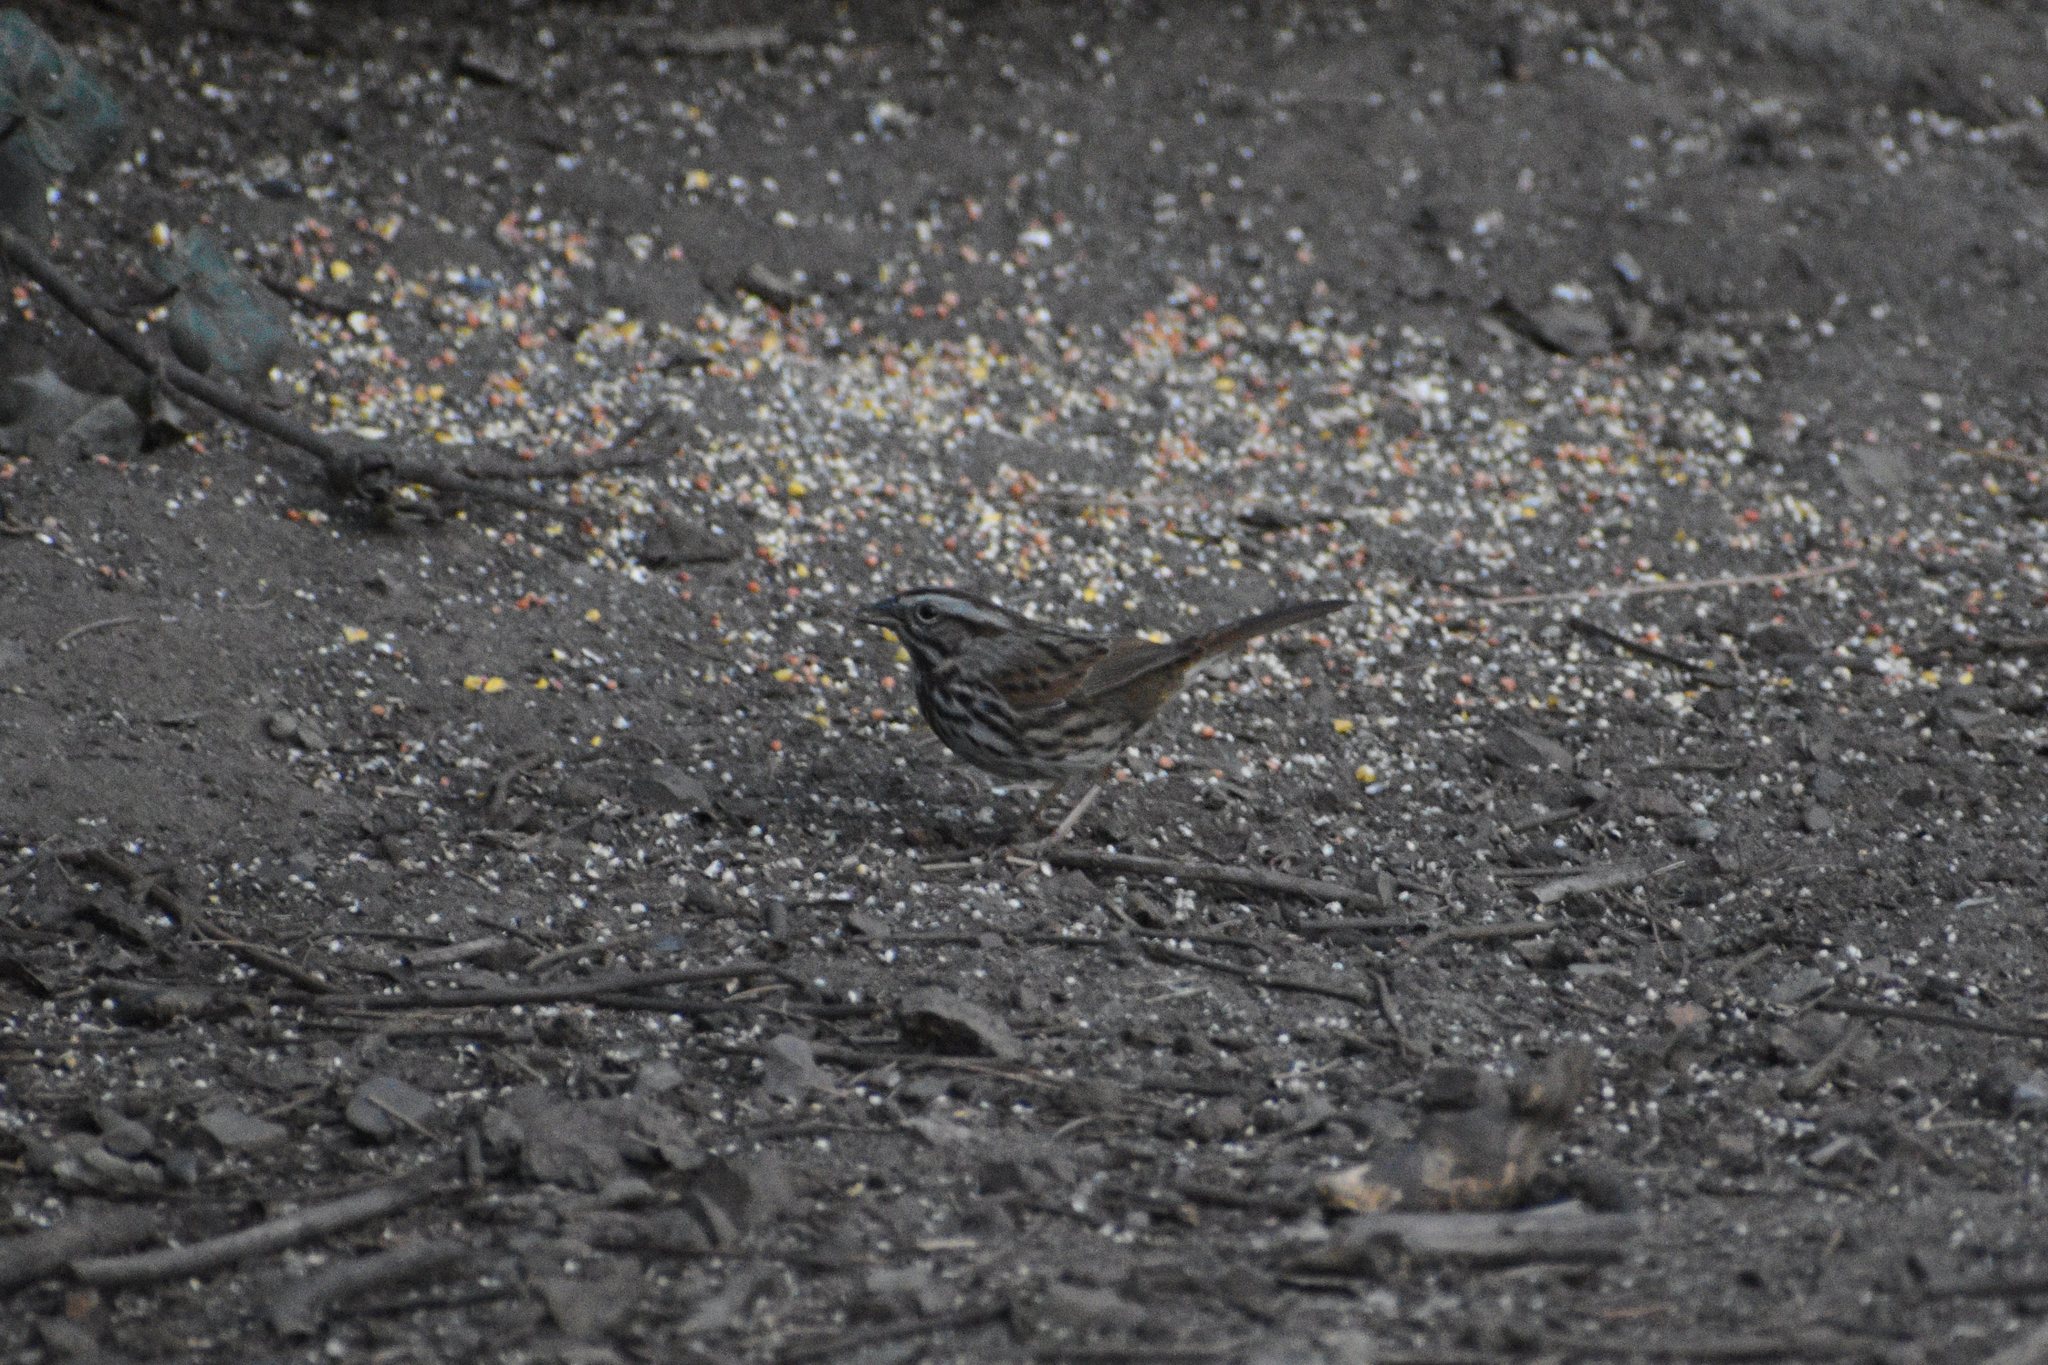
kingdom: Animalia
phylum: Chordata
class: Aves
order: Passeriformes
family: Passerellidae
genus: Melospiza
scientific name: Melospiza melodia
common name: Song sparrow
